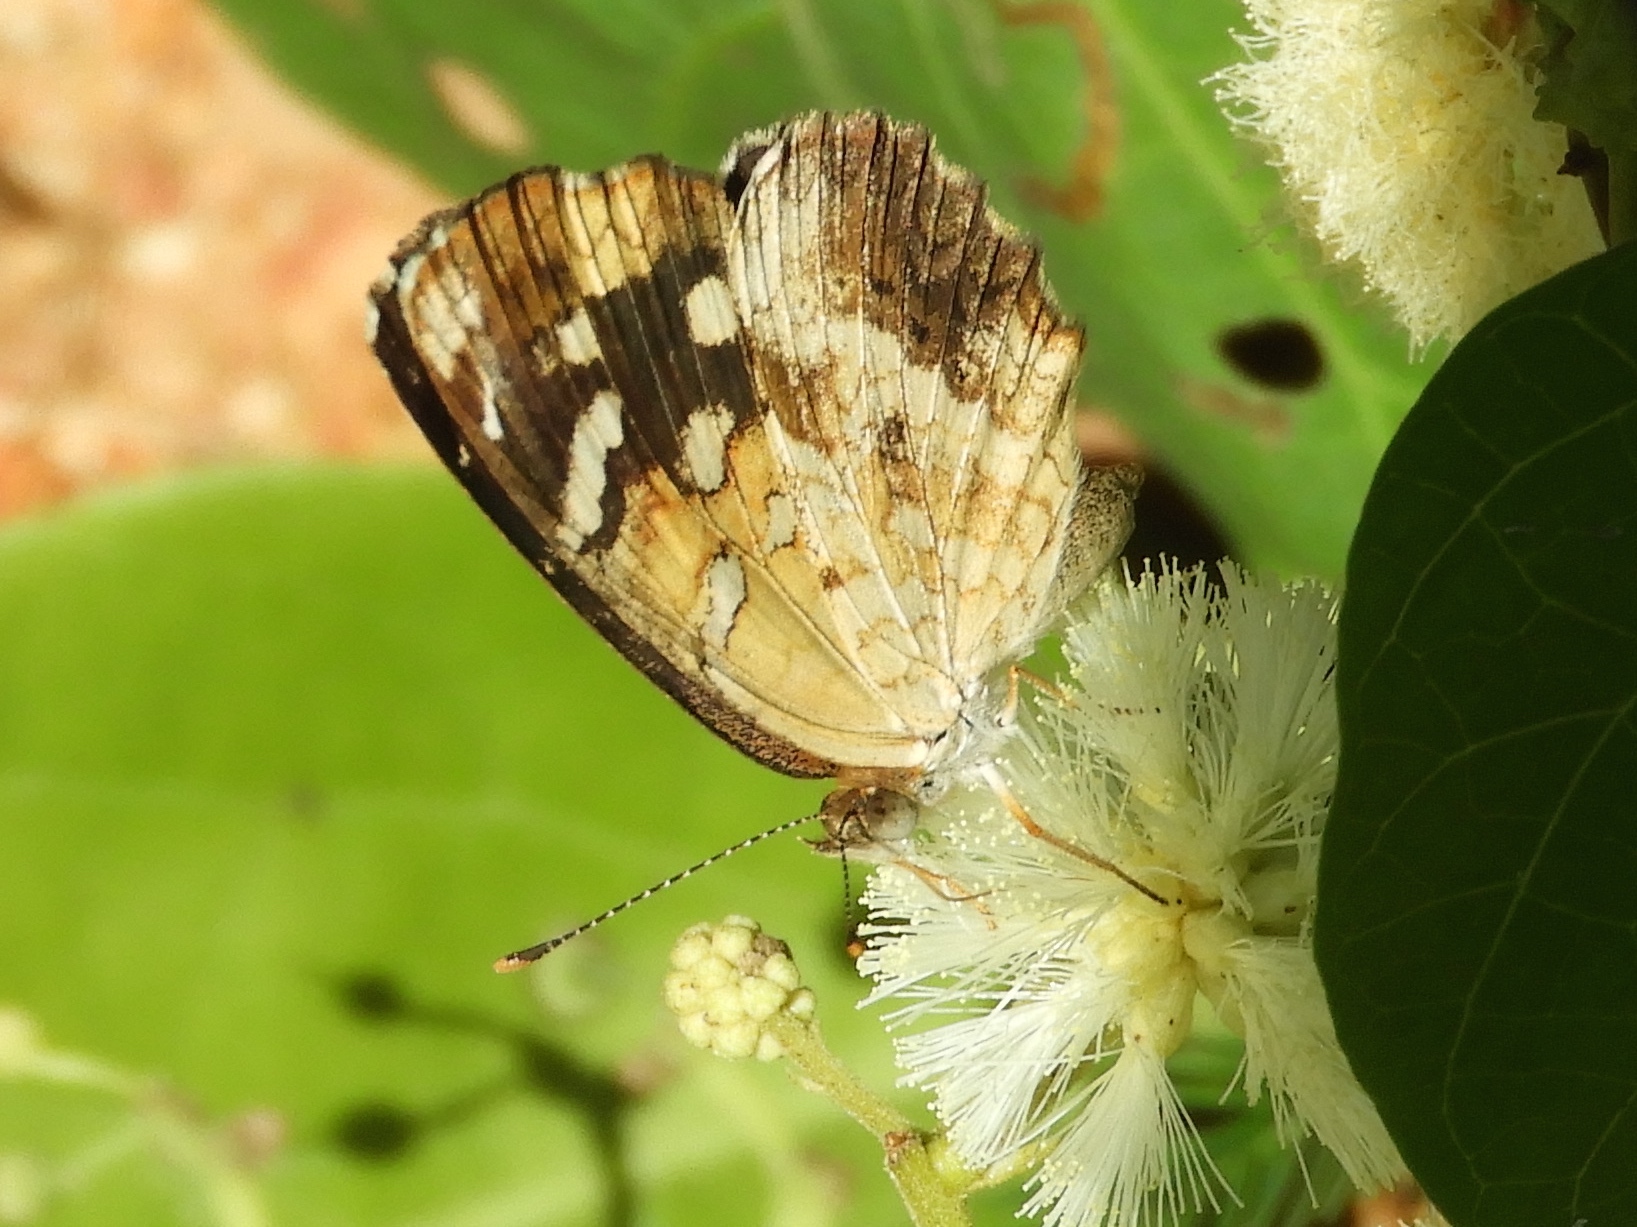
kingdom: Animalia
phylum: Arthropoda
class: Insecta
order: Lepidoptera
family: Nymphalidae
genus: Anthanassa
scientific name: Anthanassa ptolyca
